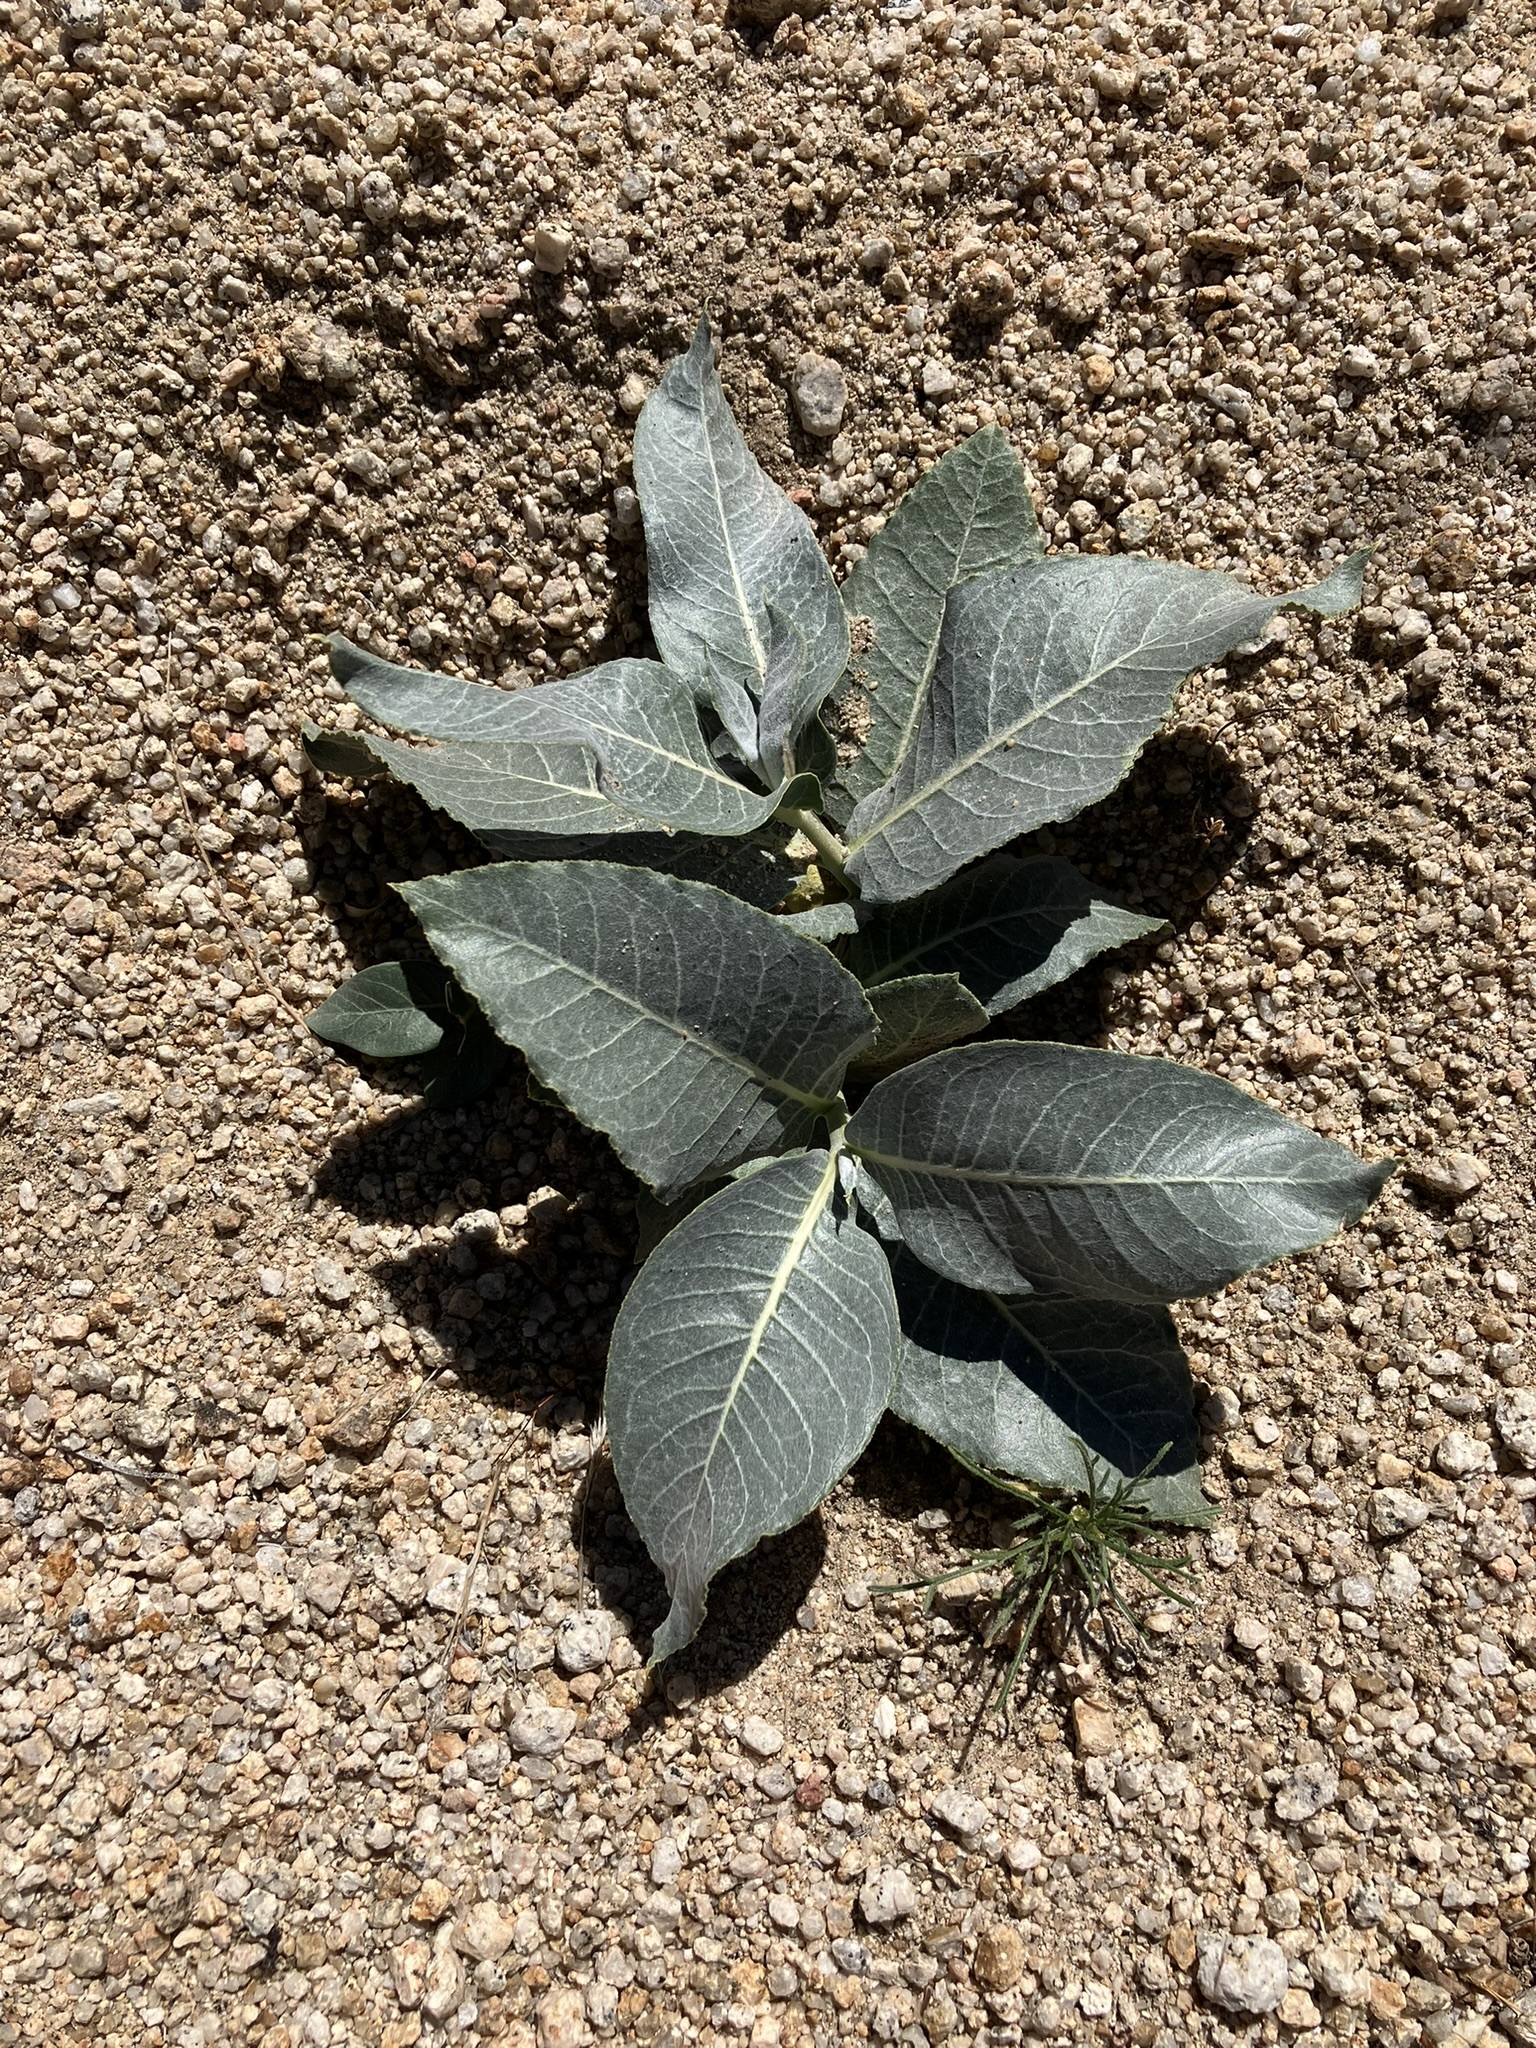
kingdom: Plantae
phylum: Tracheophyta
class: Magnoliopsida
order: Gentianales
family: Apocynaceae
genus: Asclepias
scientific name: Asclepias erosa
